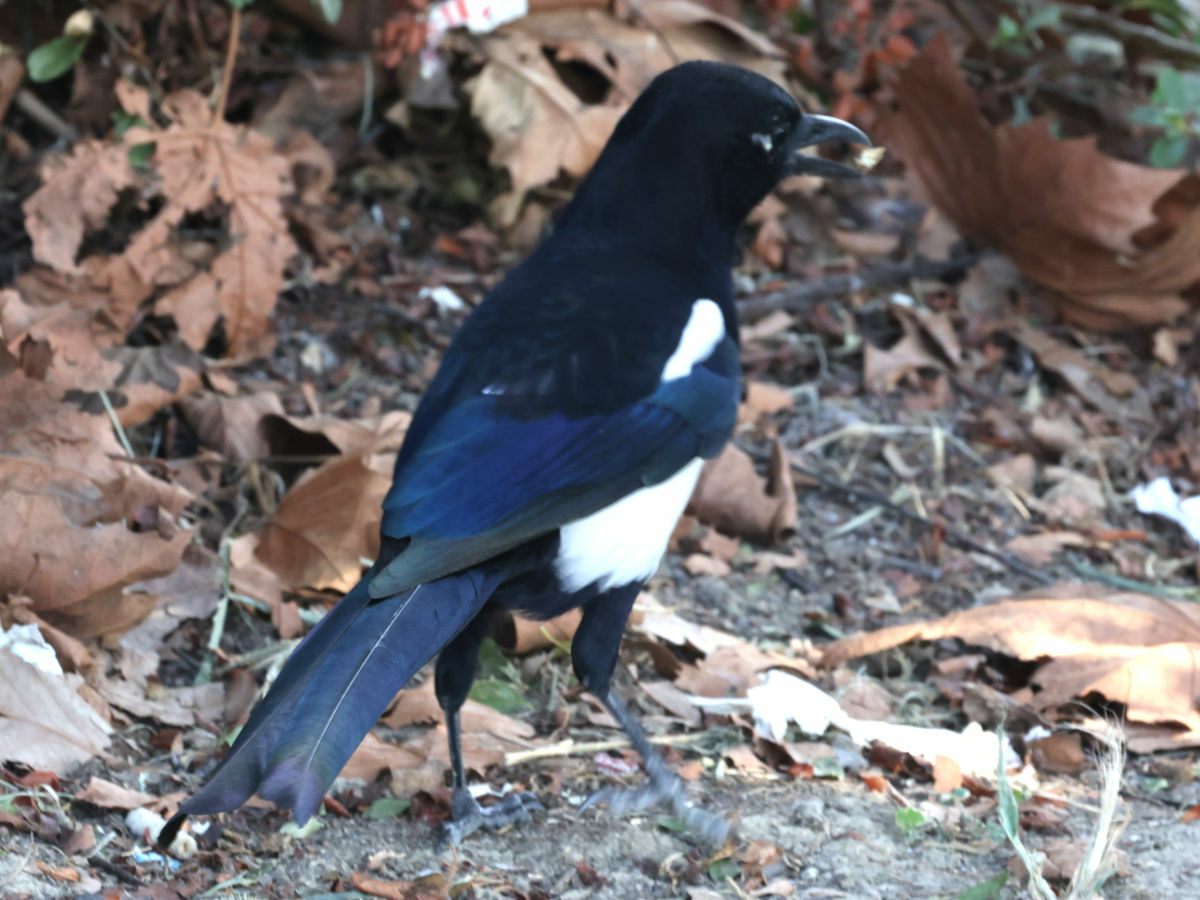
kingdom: Animalia
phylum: Chordata
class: Aves
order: Passeriformes
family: Corvidae
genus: Pica
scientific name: Pica pica
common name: Eurasian magpie
